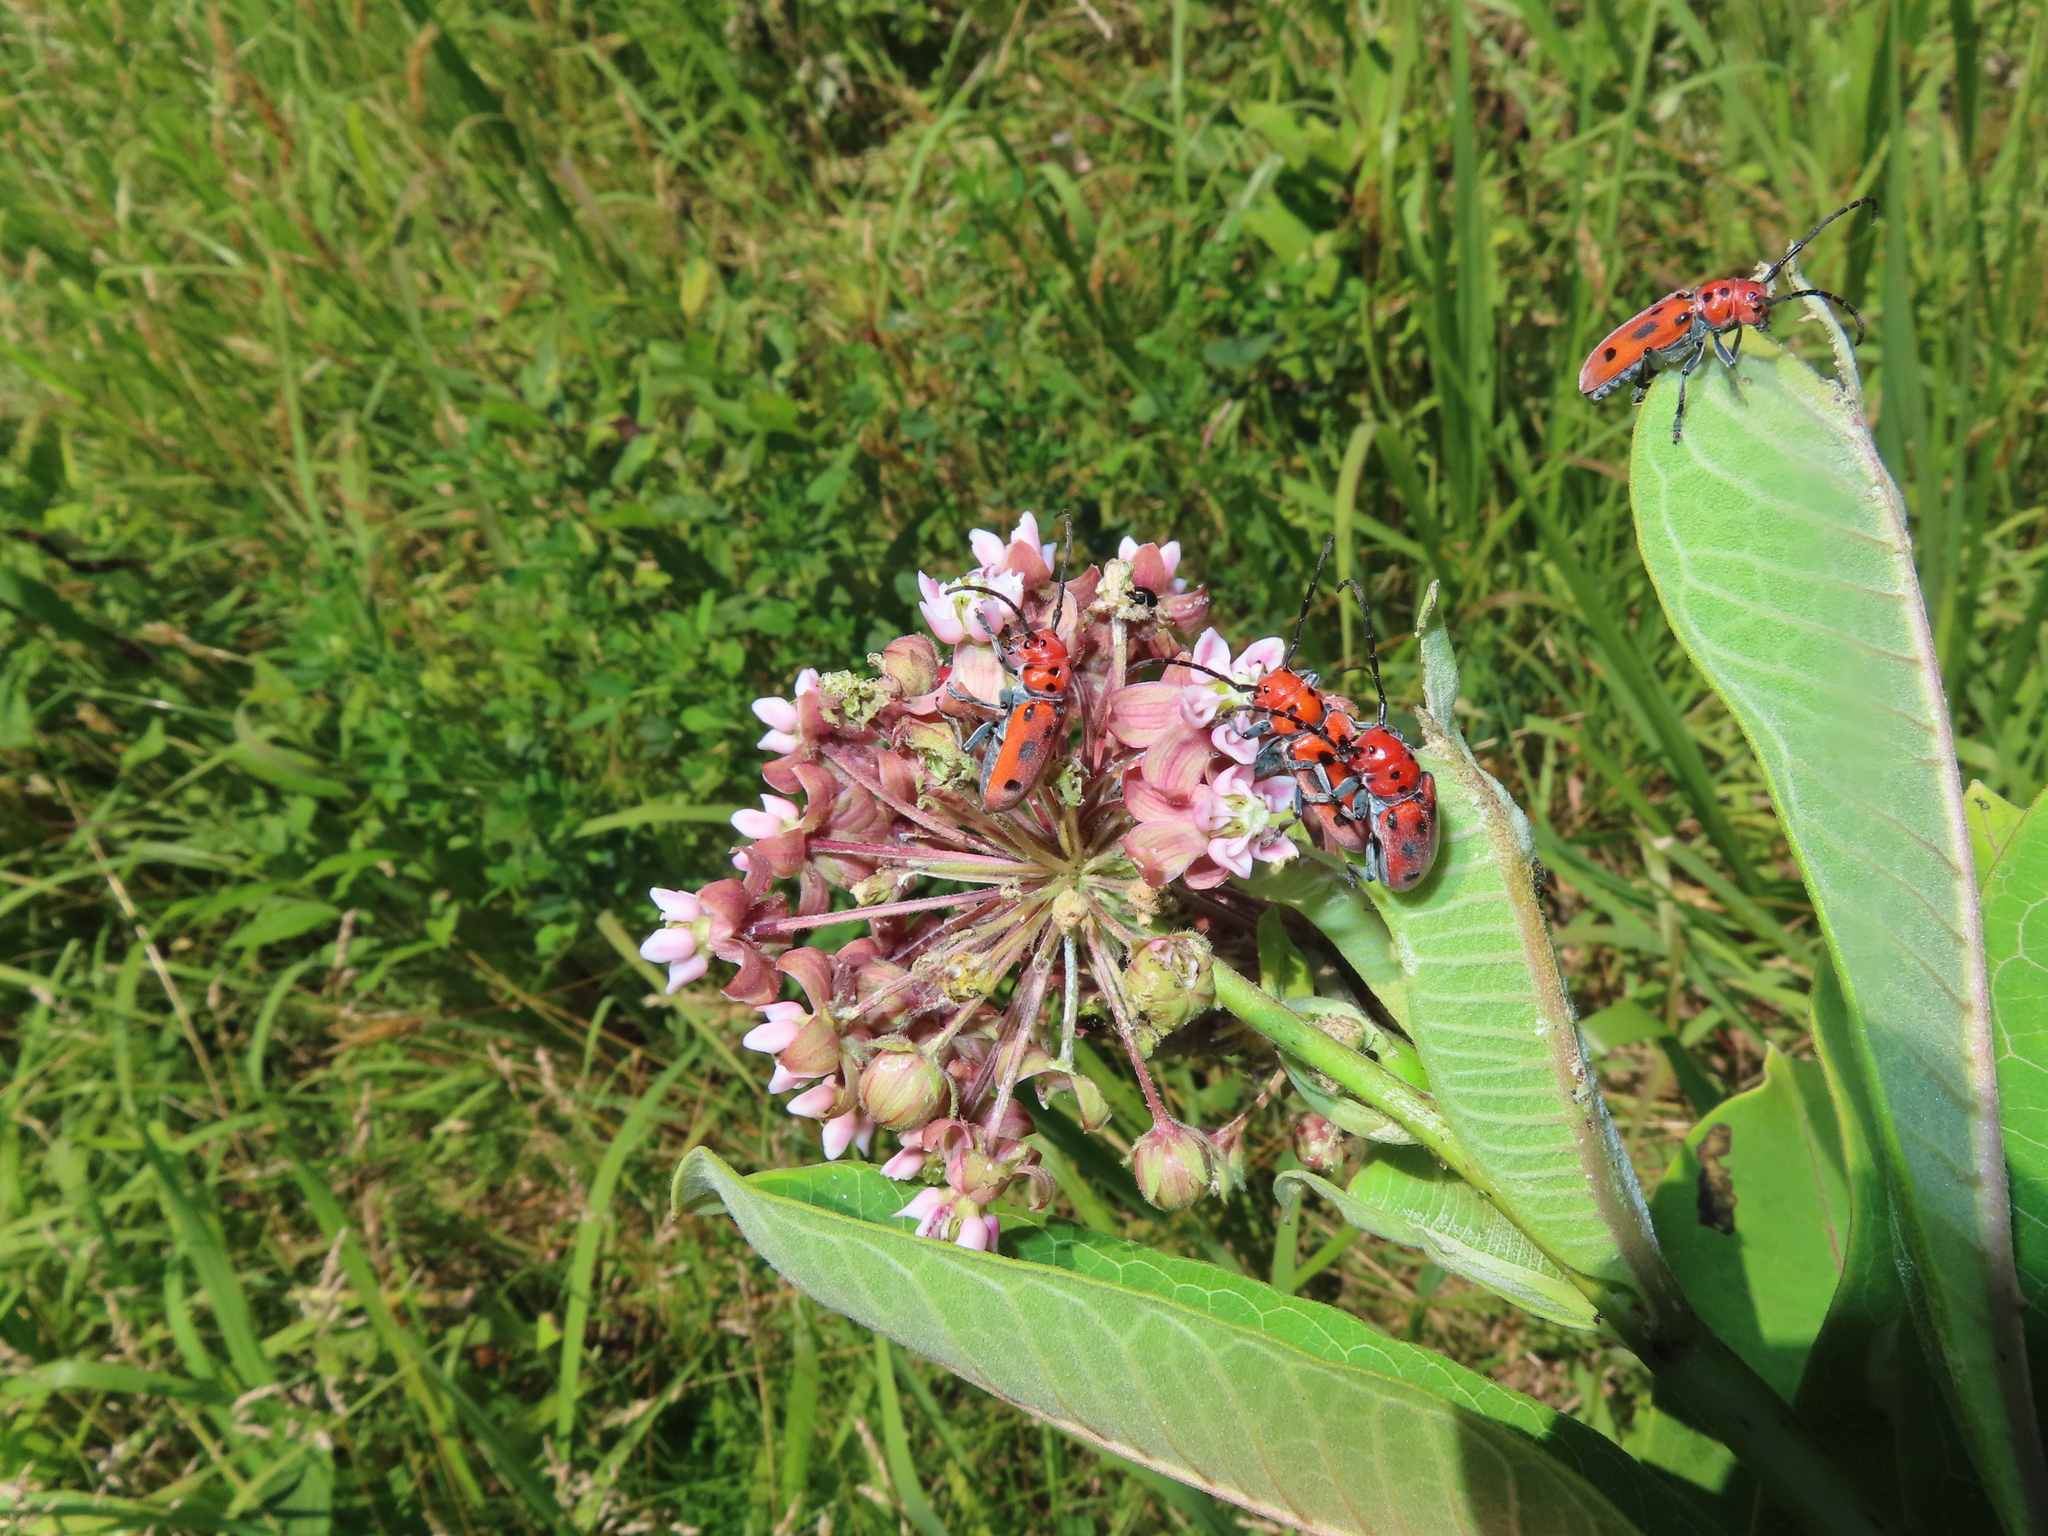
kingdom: Animalia
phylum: Arthropoda
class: Insecta
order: Coleoptera
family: Cerambycidae
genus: Tetraopes
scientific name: Tetraopes tetrophthalmus
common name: Red milkweed beetle
